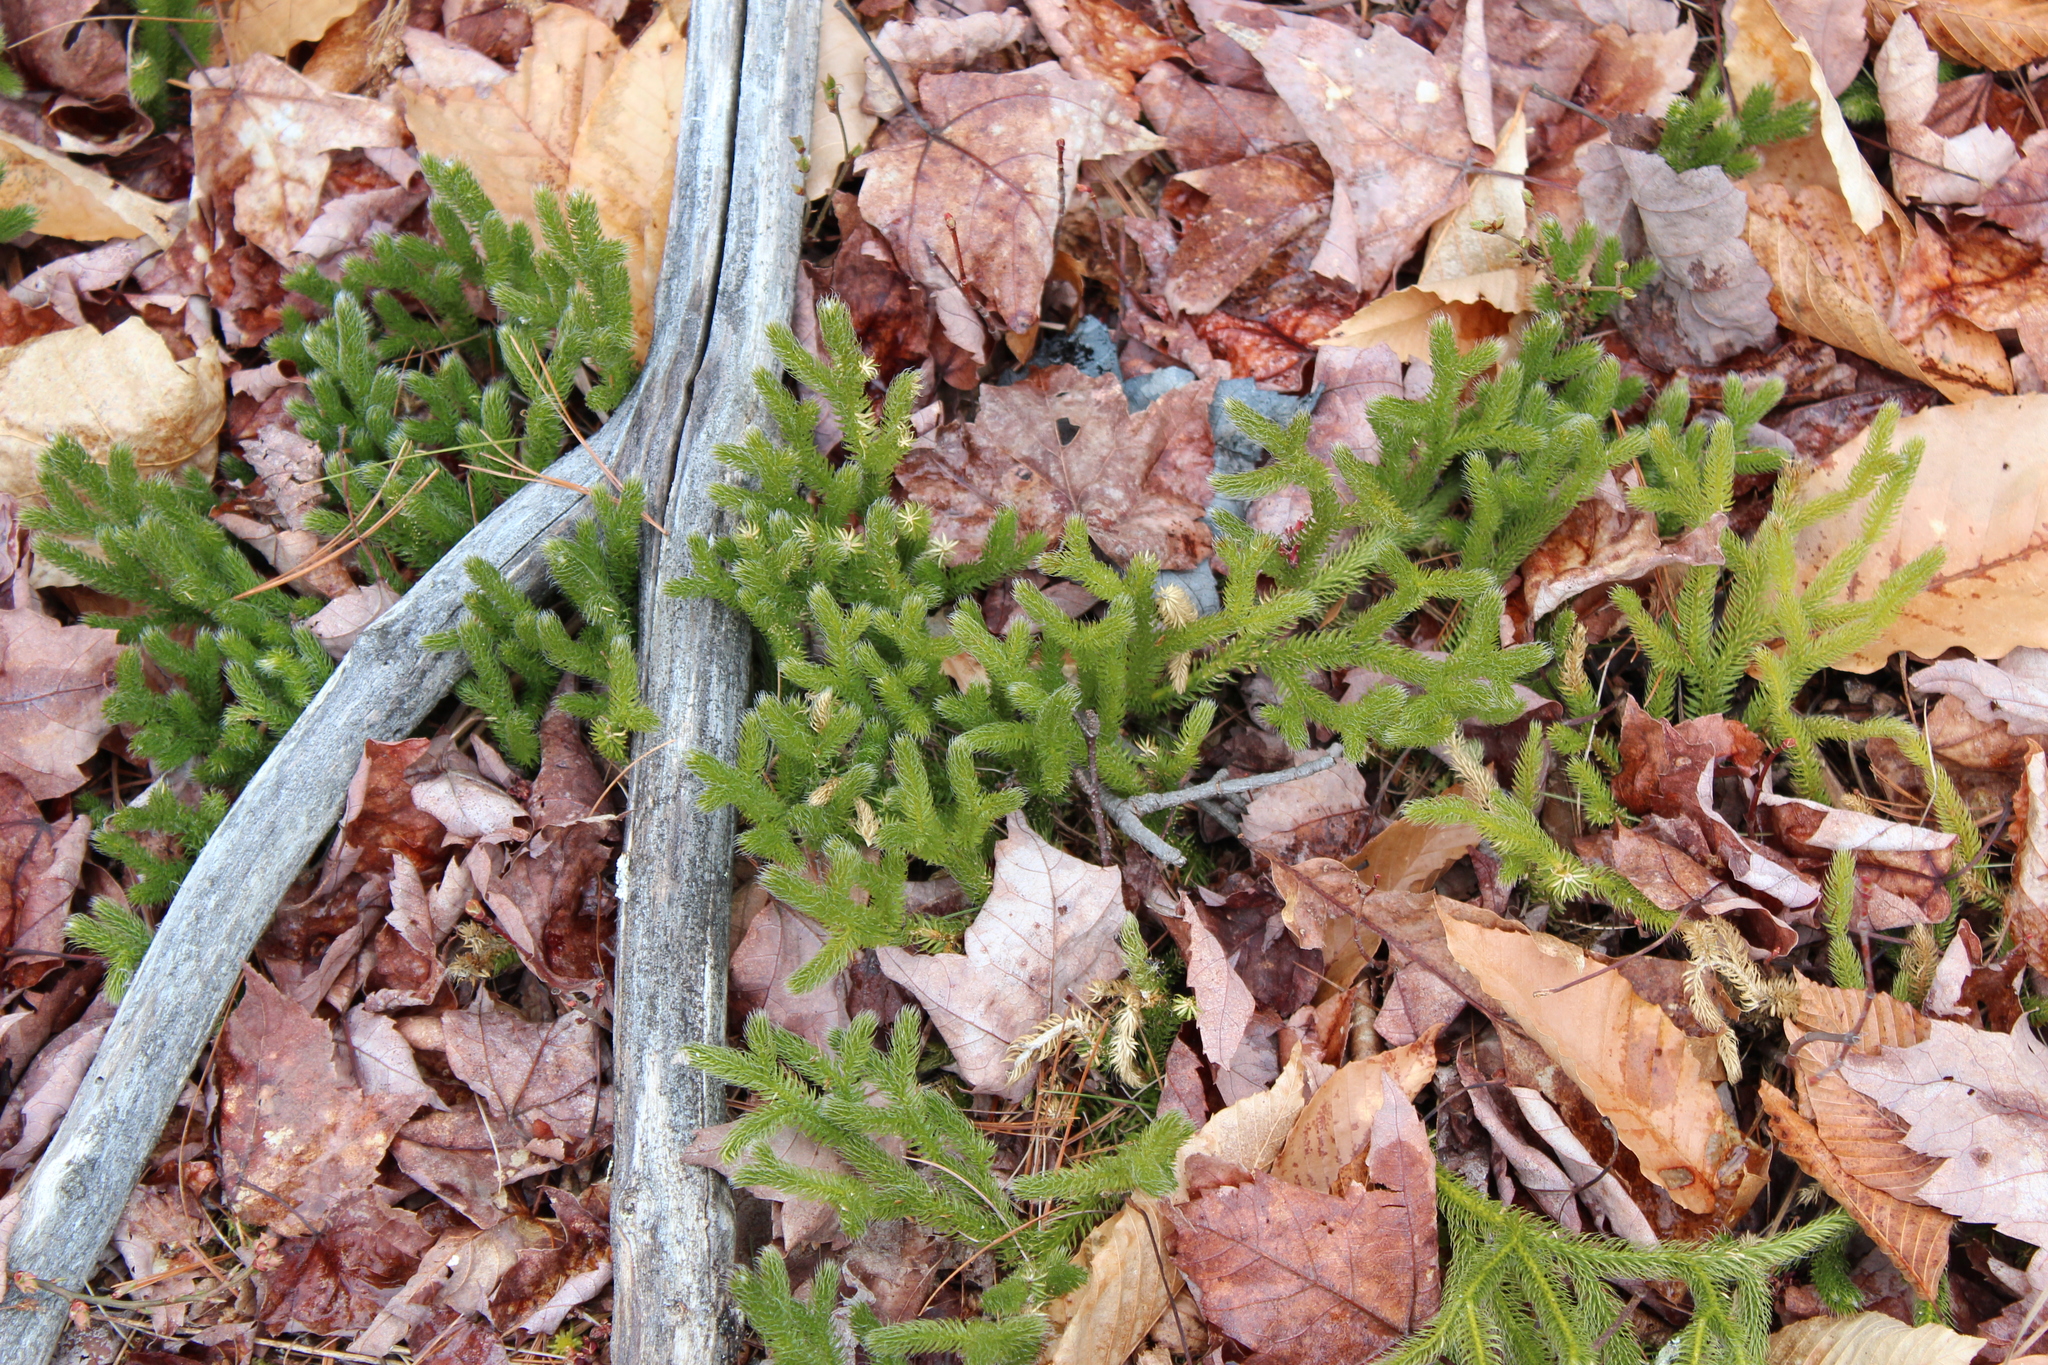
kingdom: Plantae
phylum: Tracheophyta
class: Lycopodiopsida
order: Lycopodiales
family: Lycopodiaceae
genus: Lycopodium
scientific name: Lycopodium clavatum
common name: Stag's-horn clubmoss
